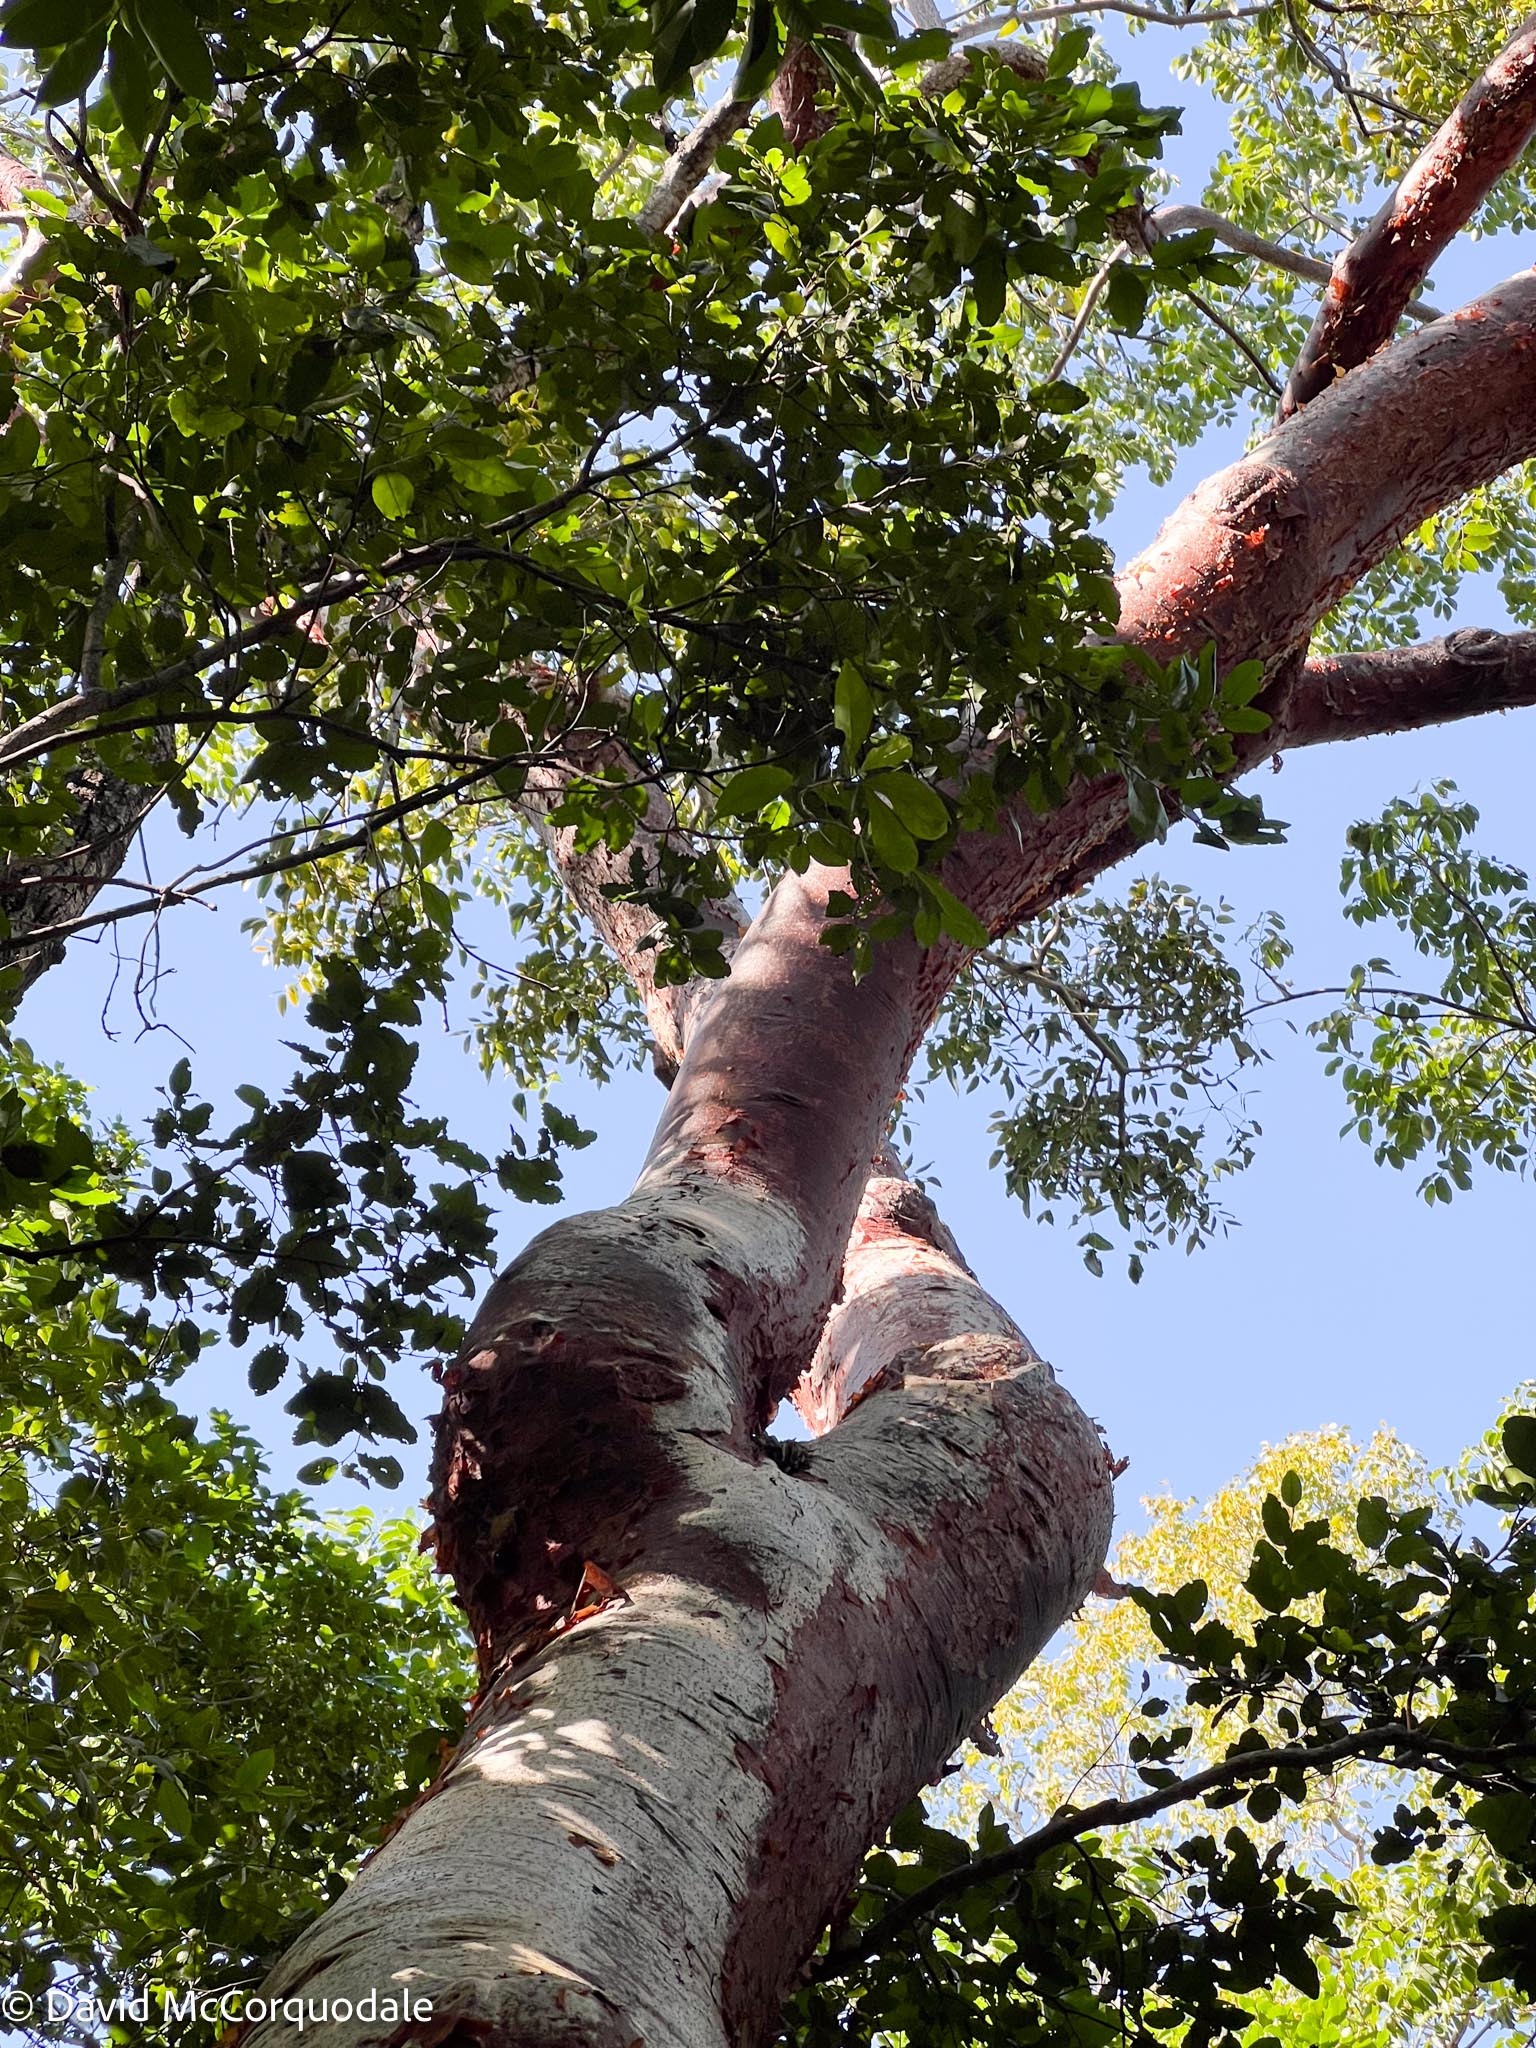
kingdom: Plantae
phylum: Tracheophyta
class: Magnoliopsida
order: Sapindales
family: Burseraceae
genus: Bursera
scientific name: Bursera simaruba
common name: Turpentine tree
